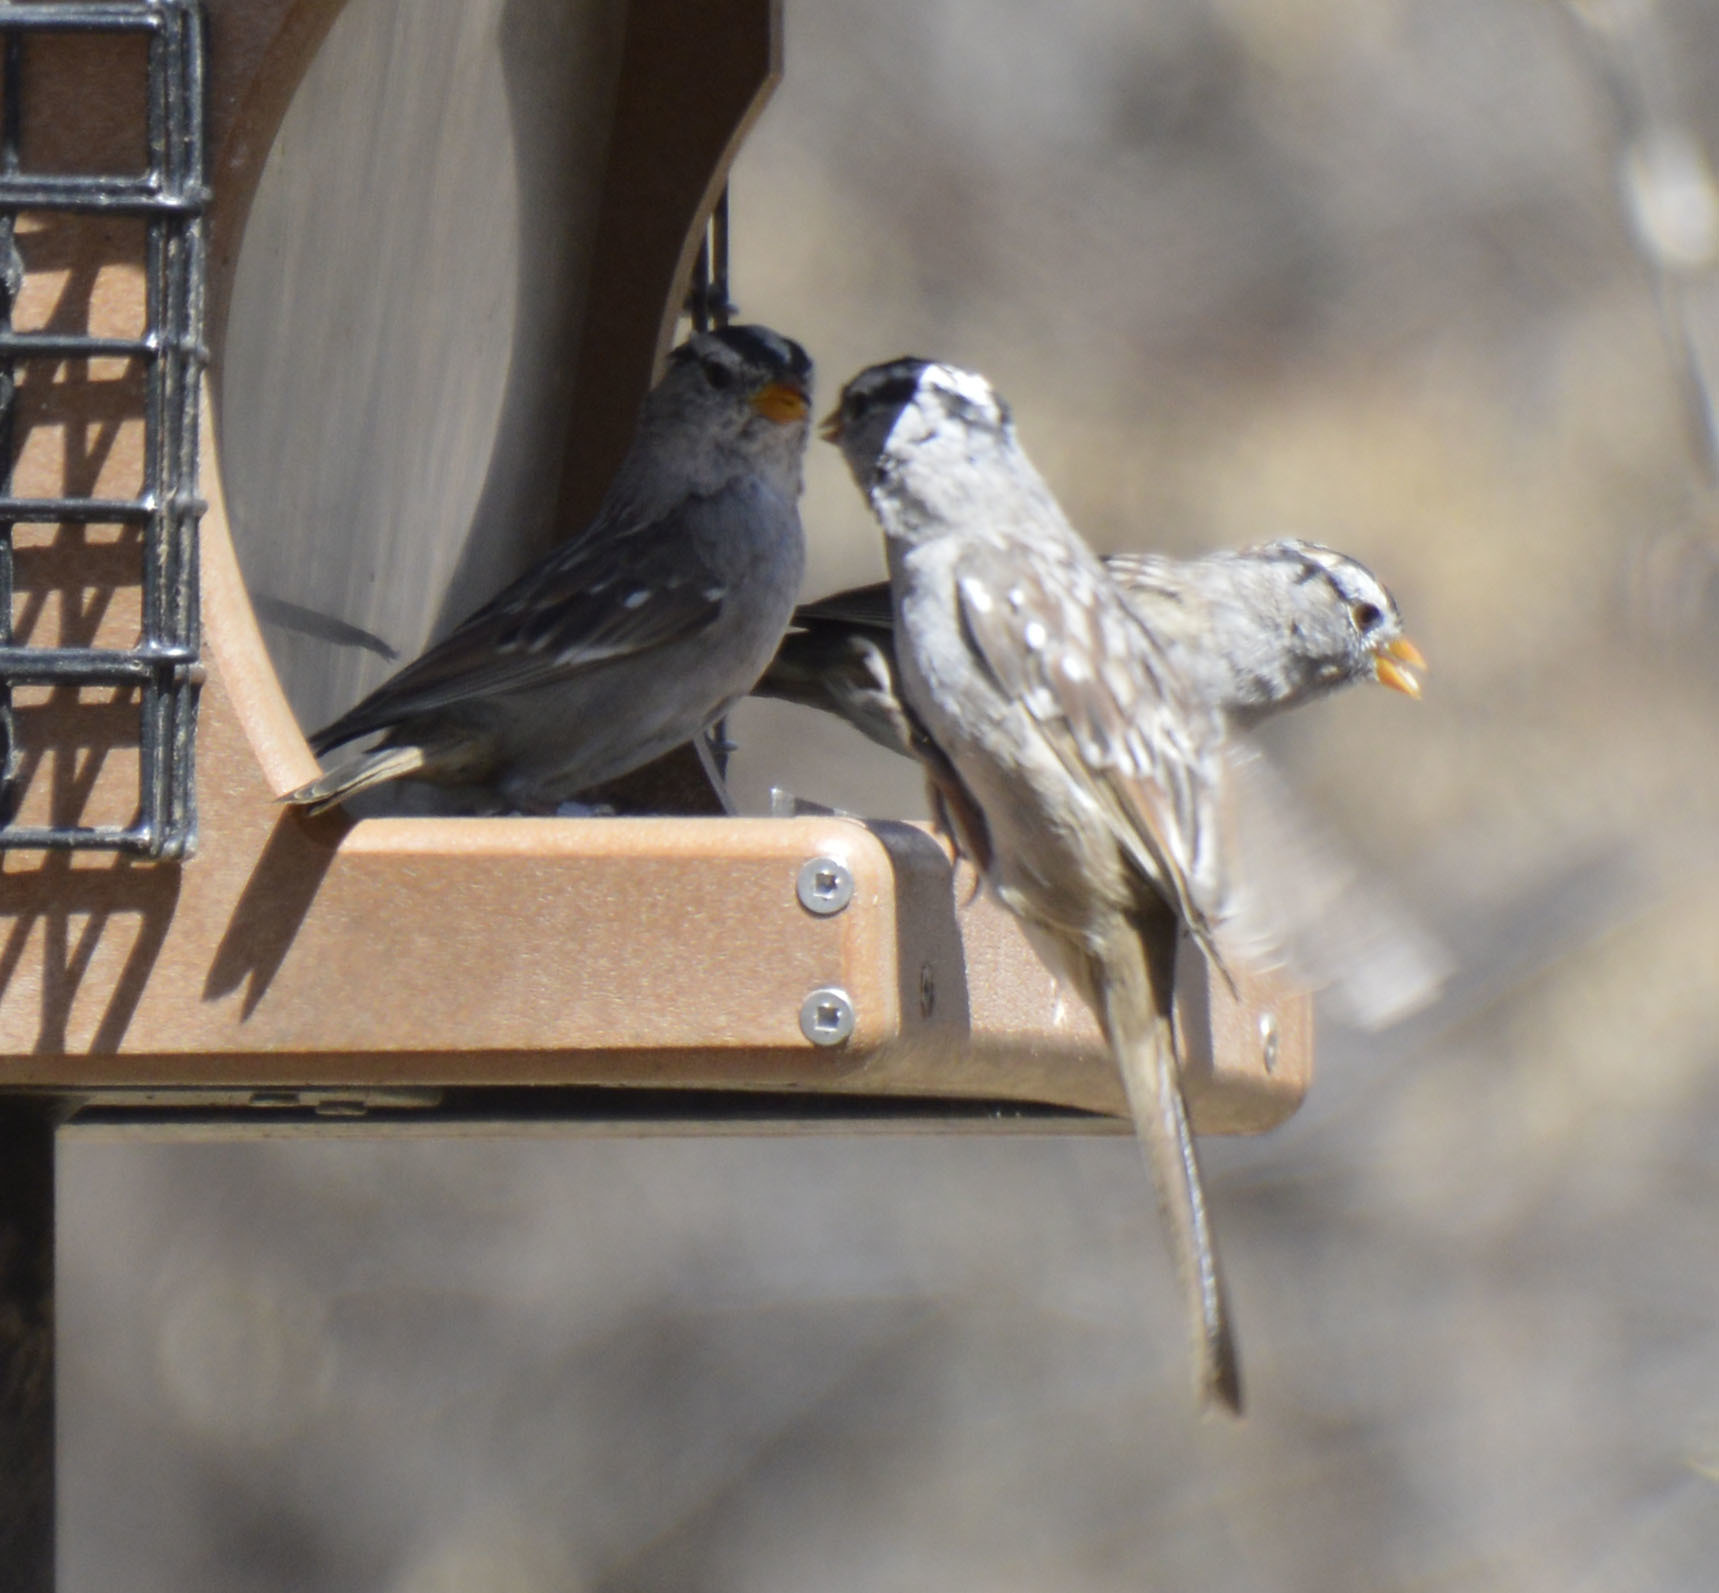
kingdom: Animalia
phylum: Chordata
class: Aves
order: Passeriformes
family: Passerellidae
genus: Zonotrichia
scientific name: Zonotrichia leucophrys
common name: White-crowned sparrow
